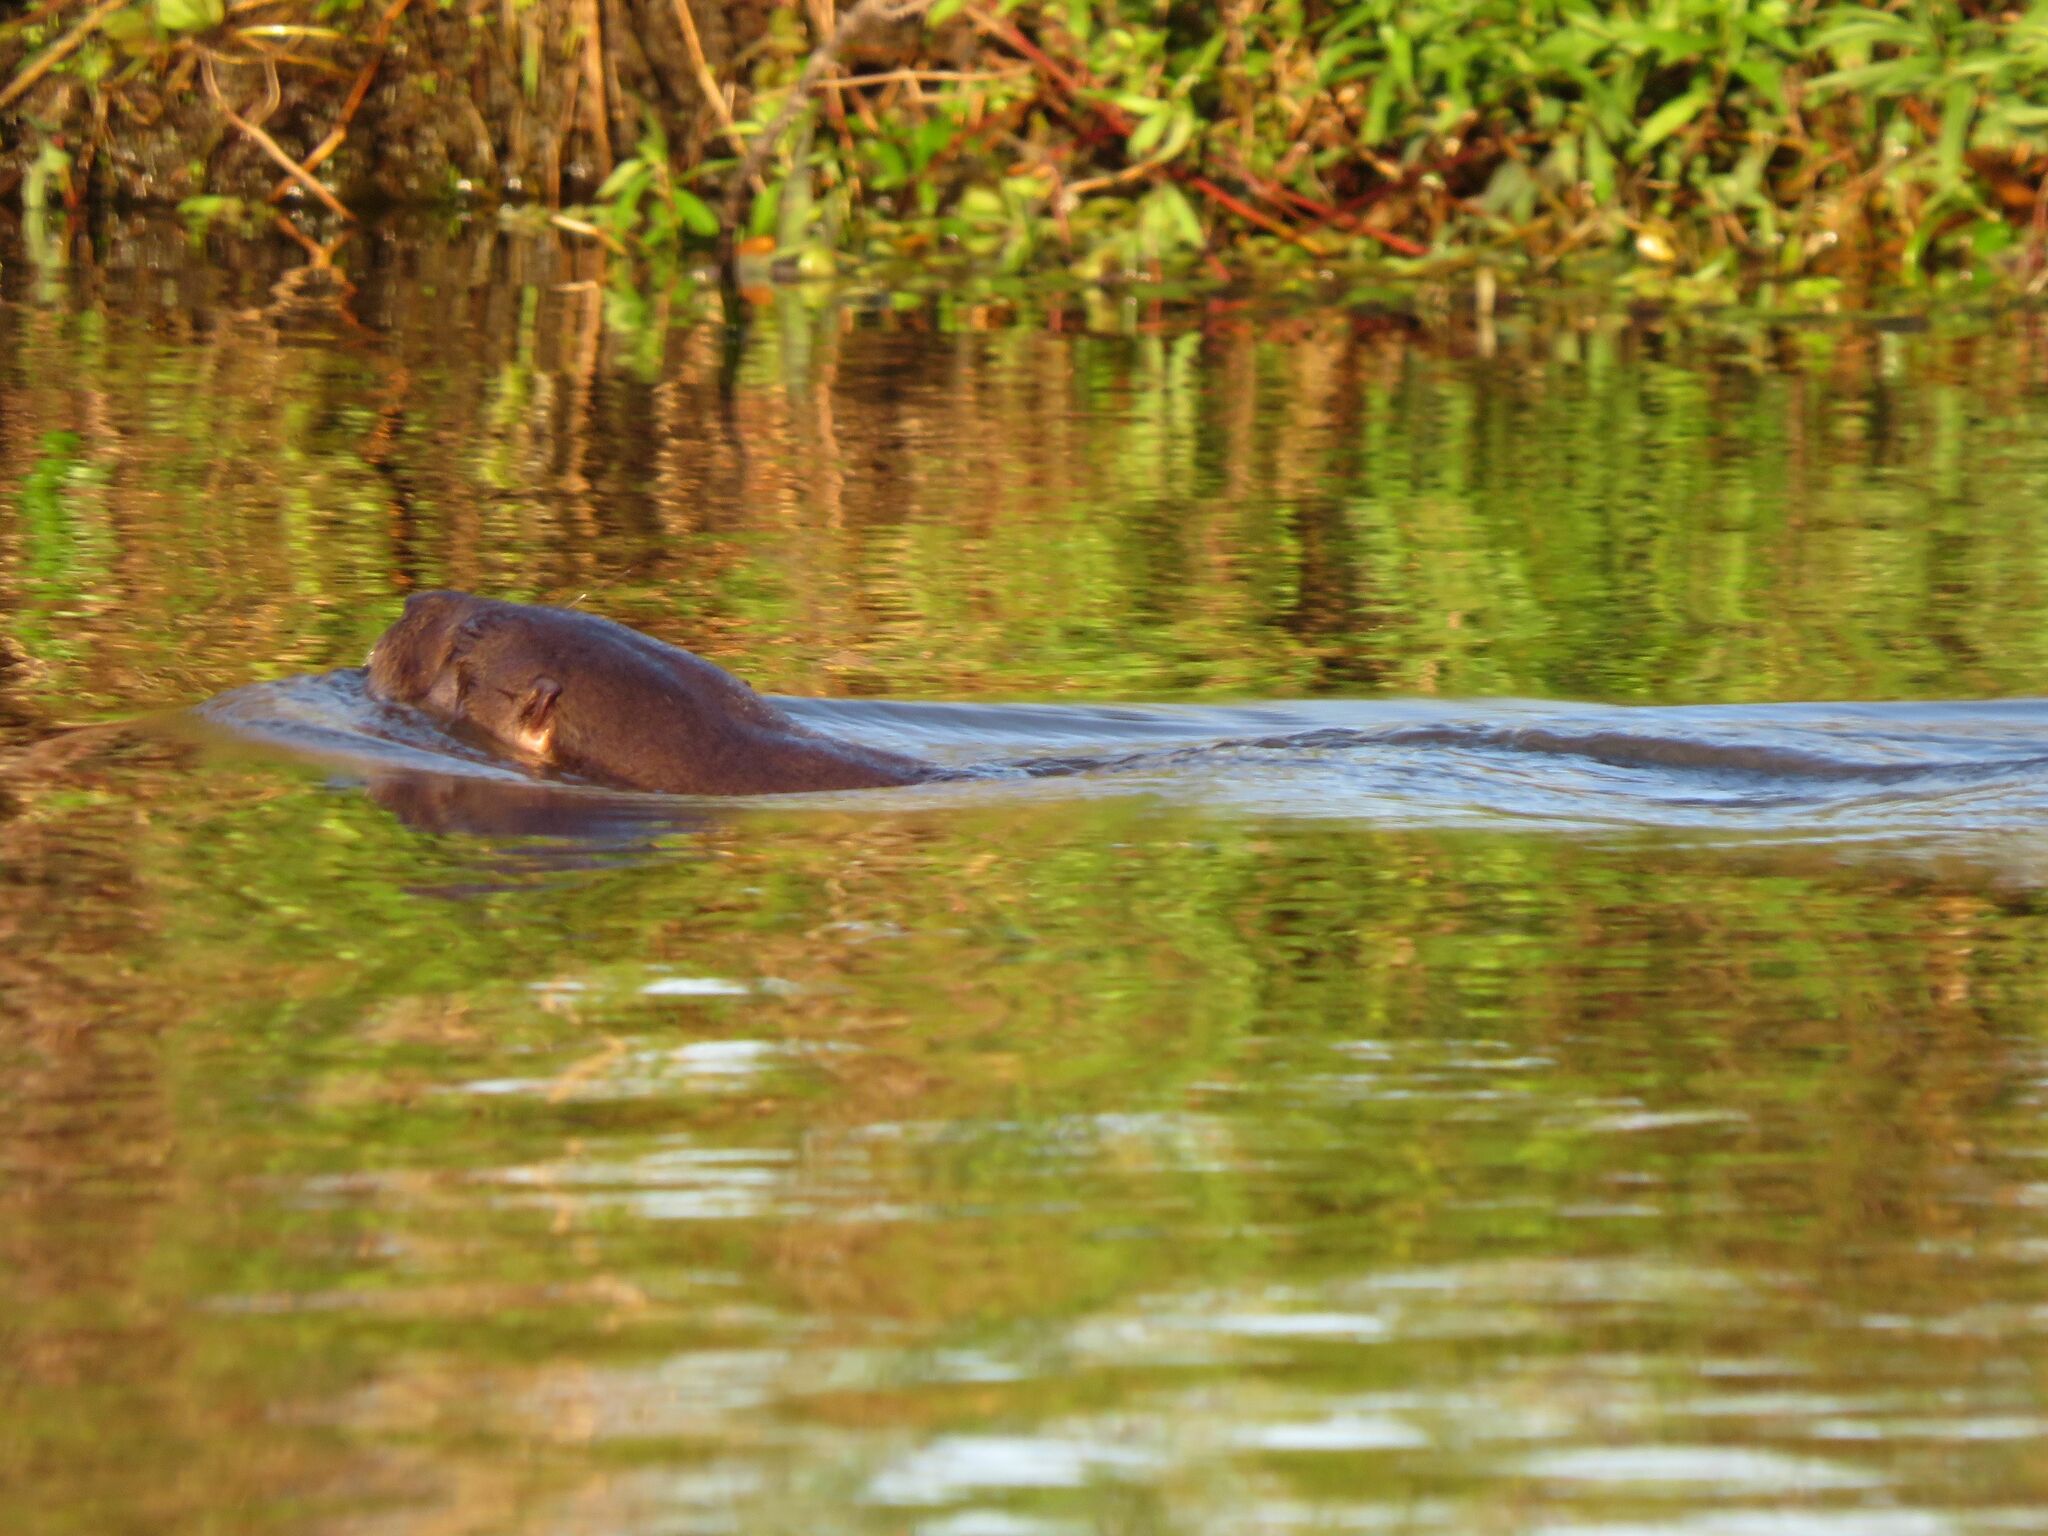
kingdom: Animalia
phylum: Chordata
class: Mammalia
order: Carnivora
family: Mustelidae
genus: Lontra
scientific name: Lontra longicaudis
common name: Neotropical otter
